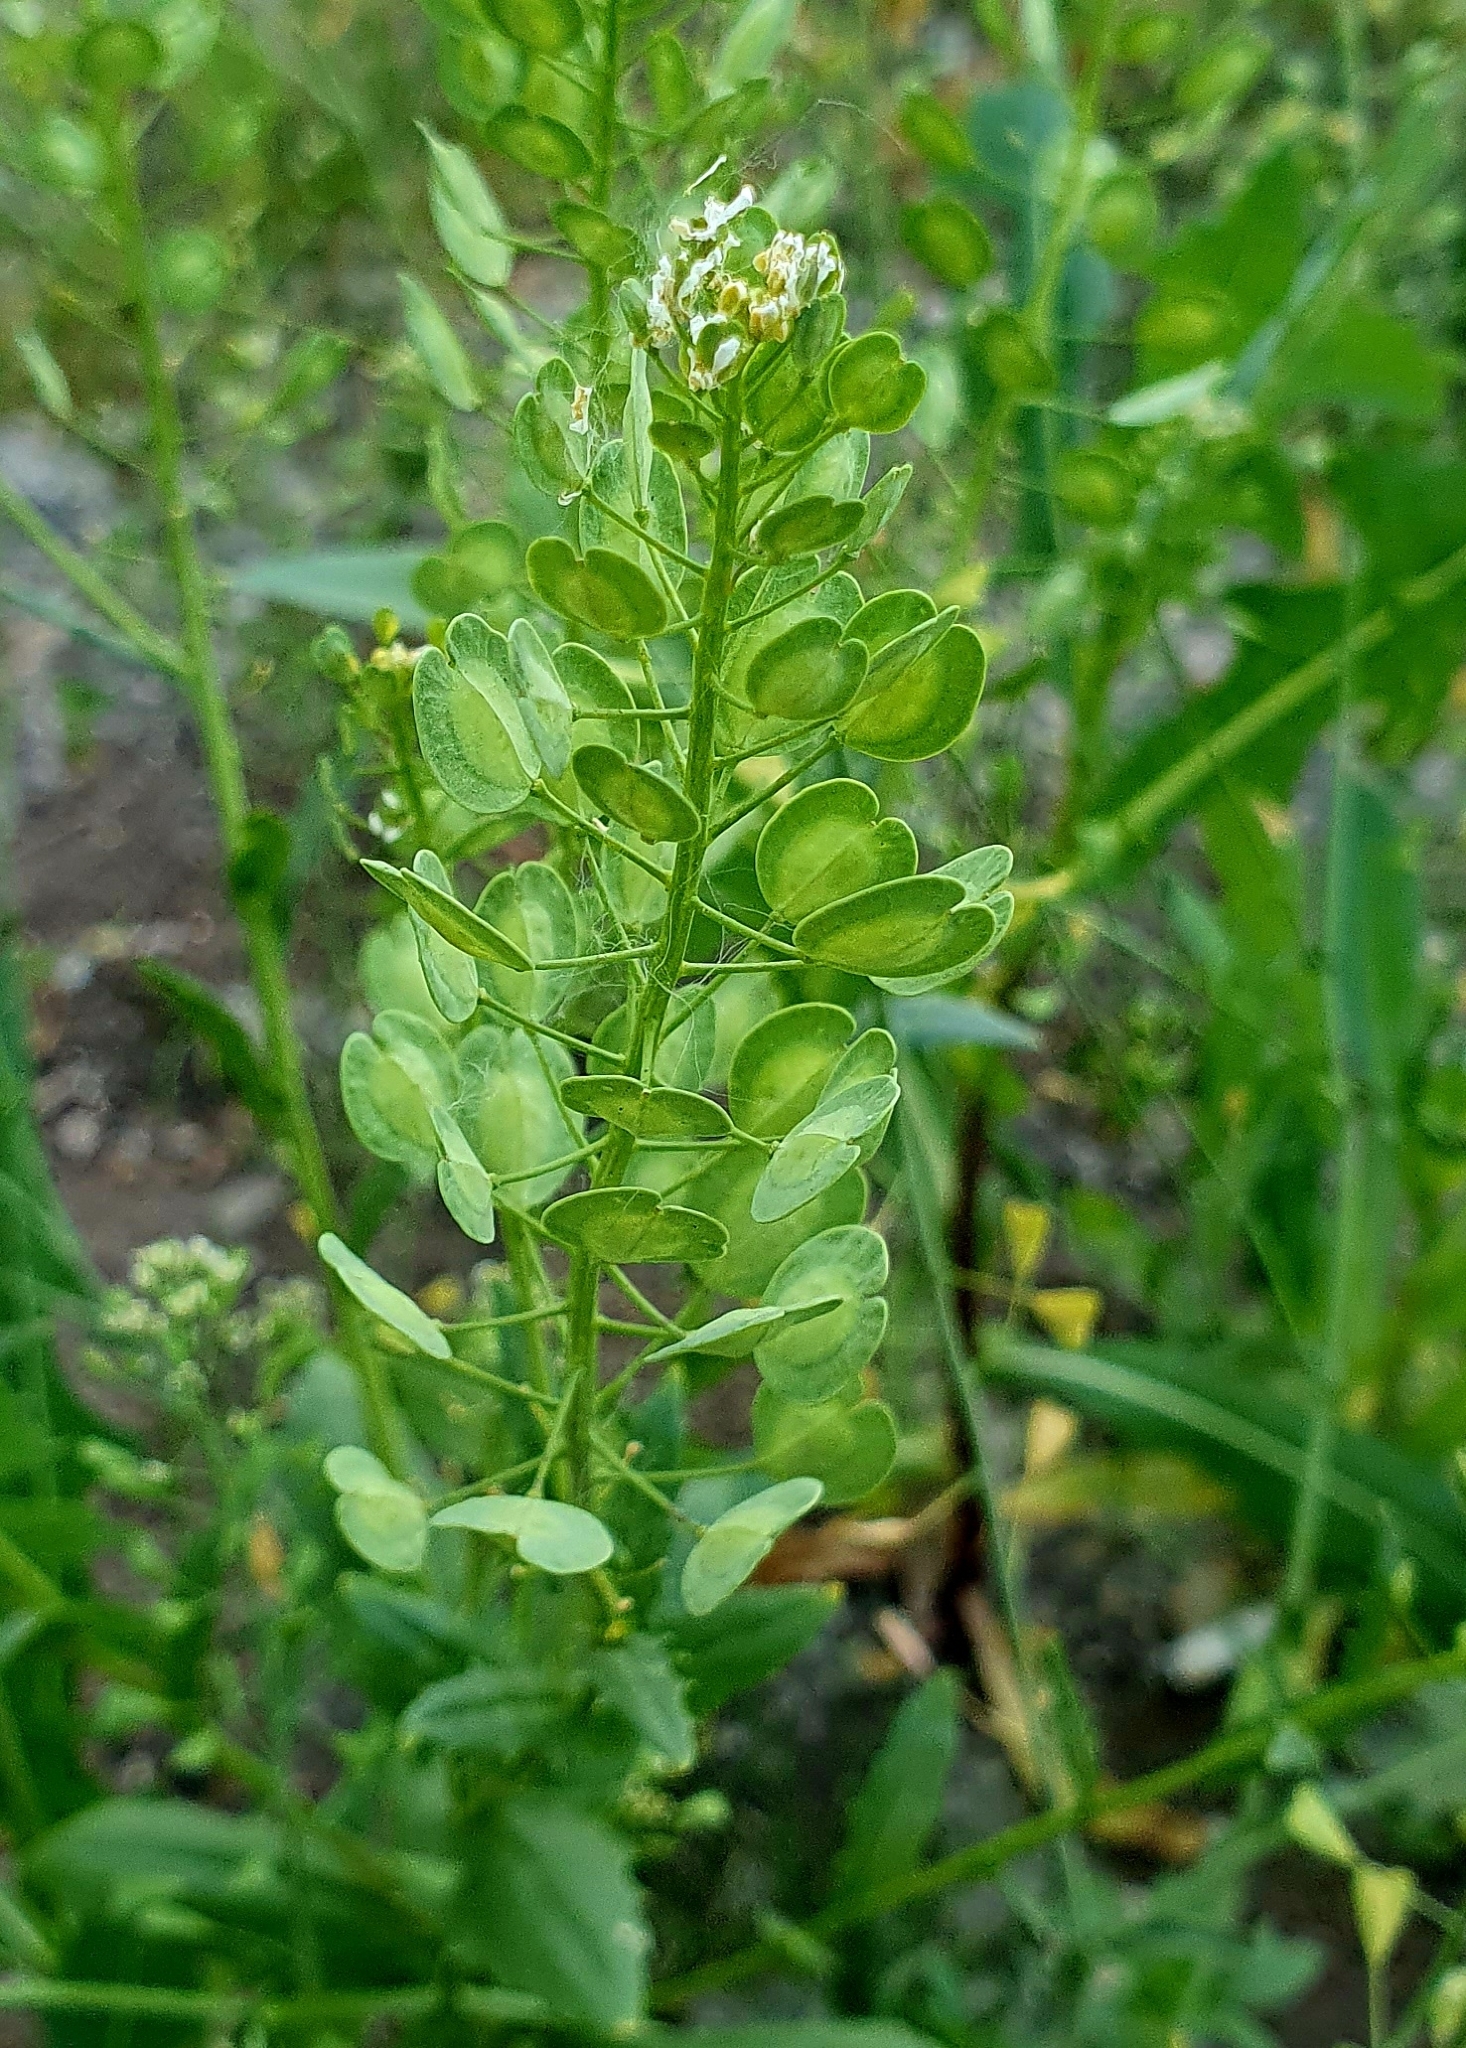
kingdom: Plantae
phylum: Tracheophyta
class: Magnoliopsida
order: Brassicales
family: Brassicaceae
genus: Thlaspi
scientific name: Thlaspi arvense
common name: Field pennycress
